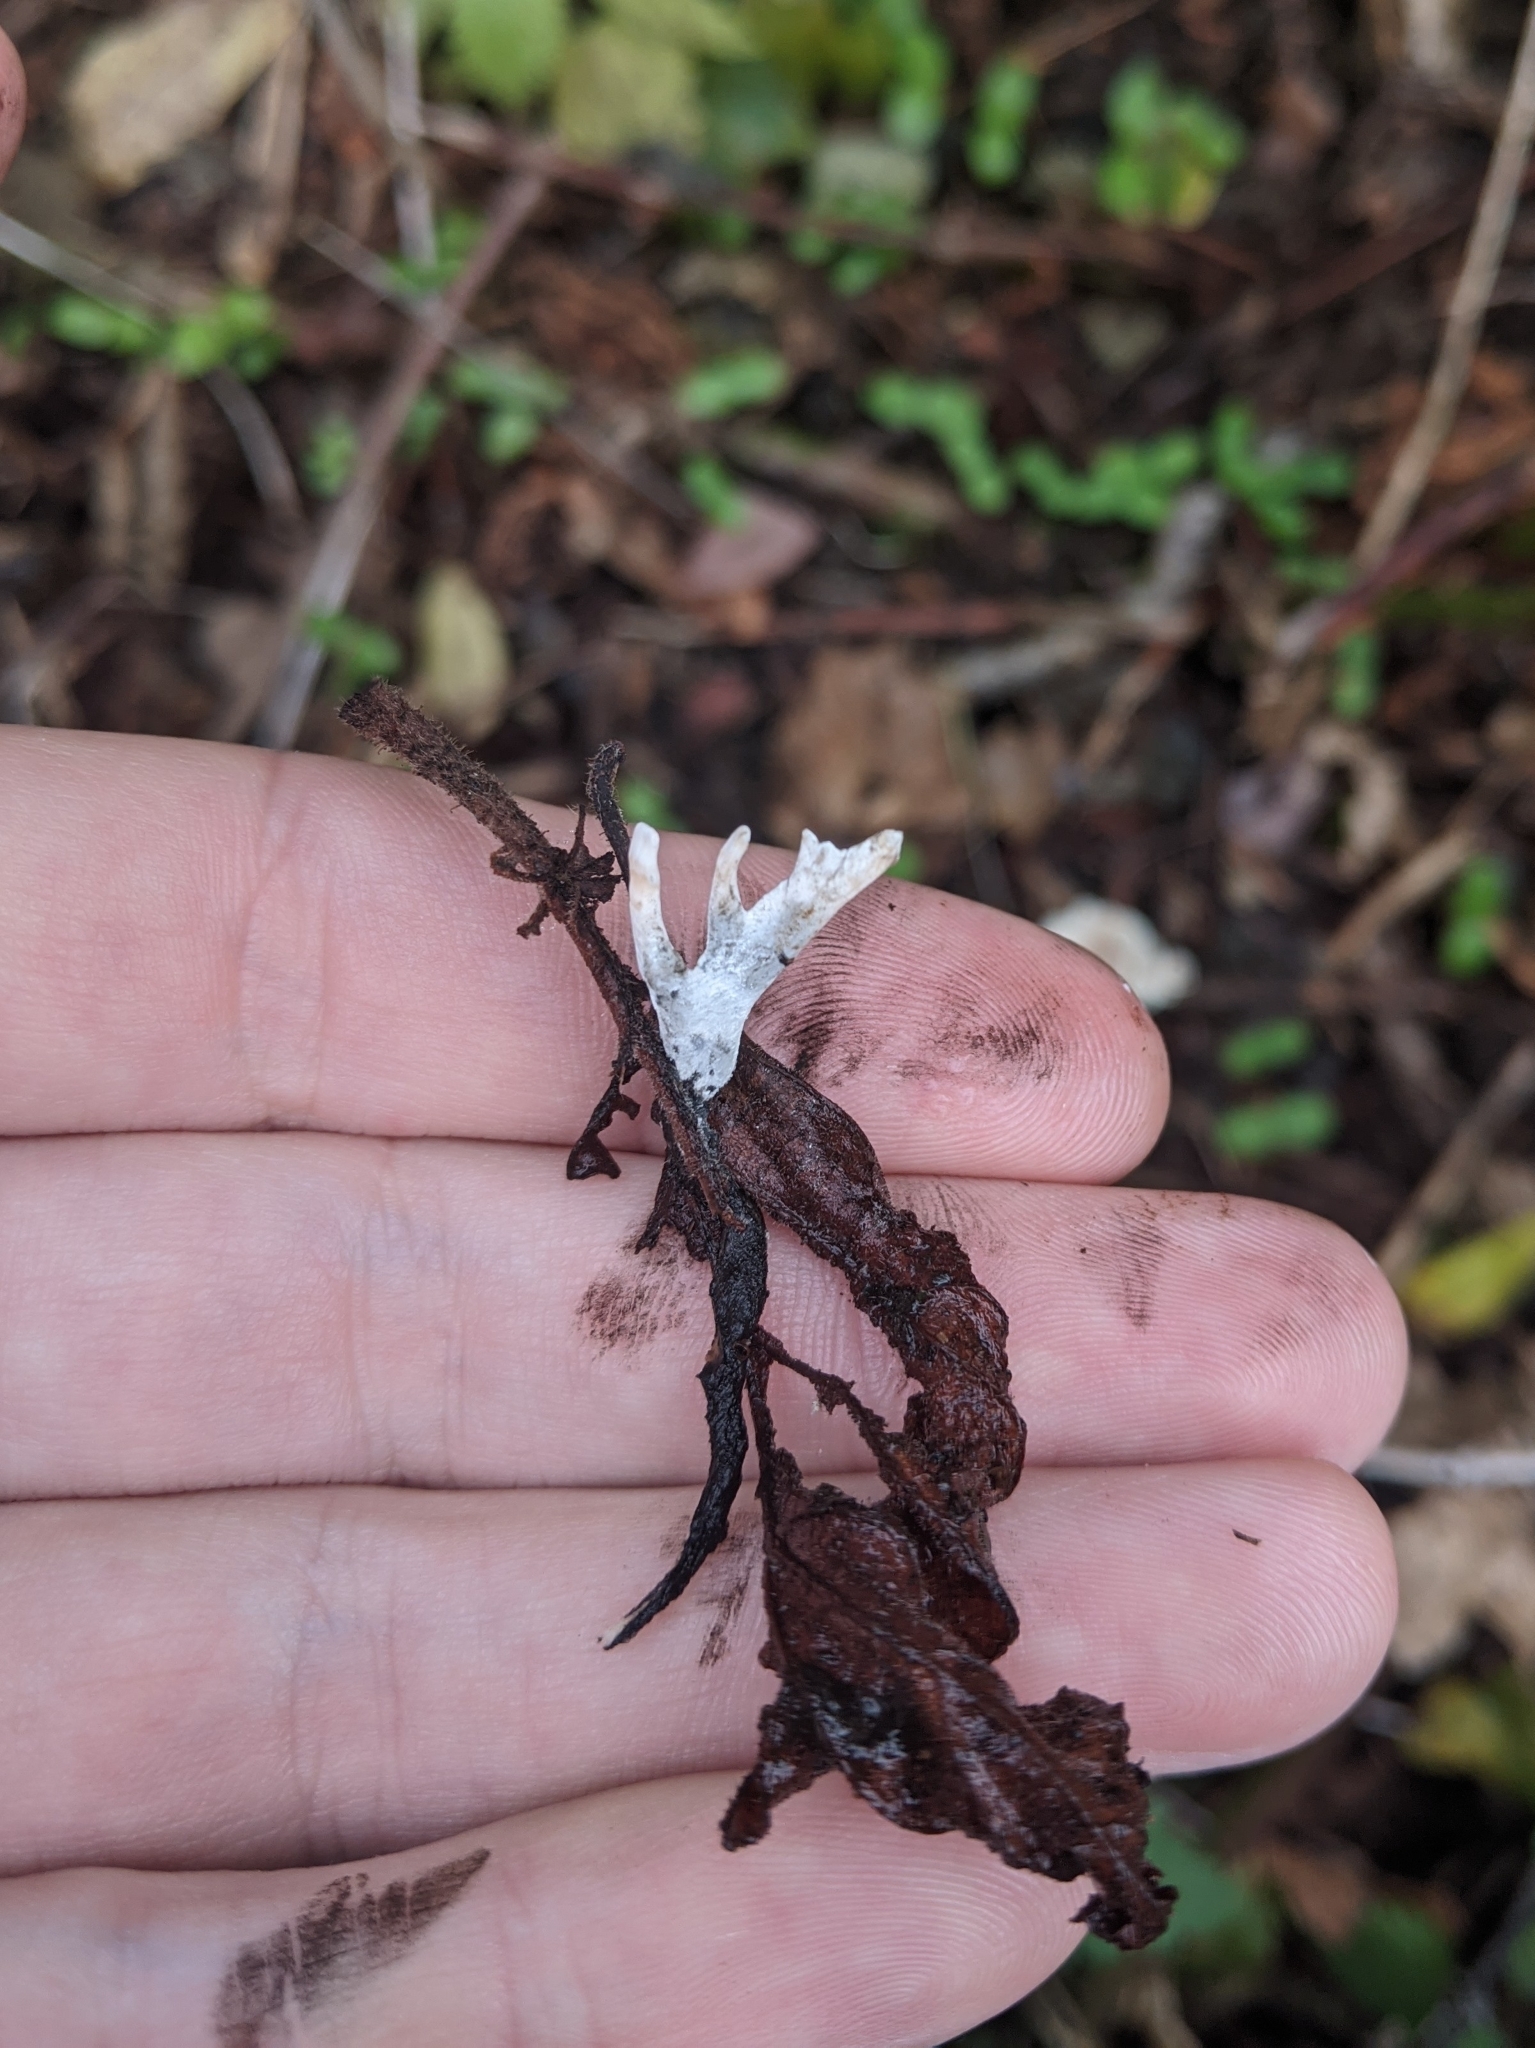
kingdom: Fungi
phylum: Ascomycota
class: Sordariomycetes
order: Xylariales
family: Xylariaceae
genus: Xylaria
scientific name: Xylaria hypoxylon
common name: Candle-snuff fungus
